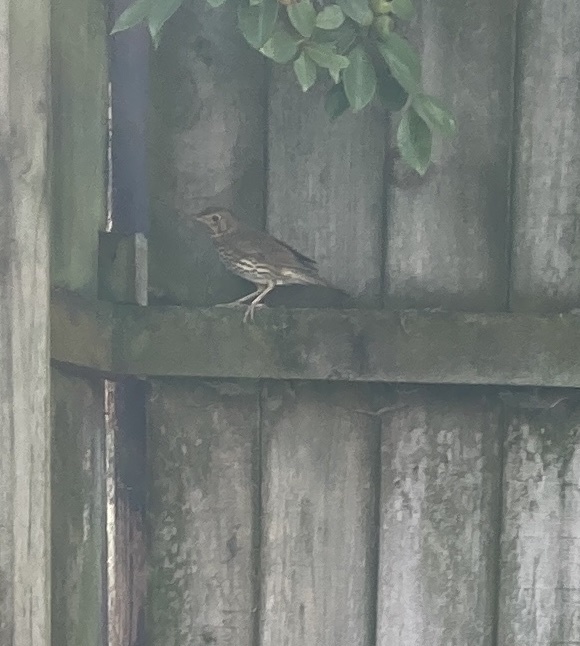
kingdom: Animalia
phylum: Chordata
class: Aves
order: Passeriformes
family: Turdidae
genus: Turdus
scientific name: Turdus philomelos
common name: Song thrush
